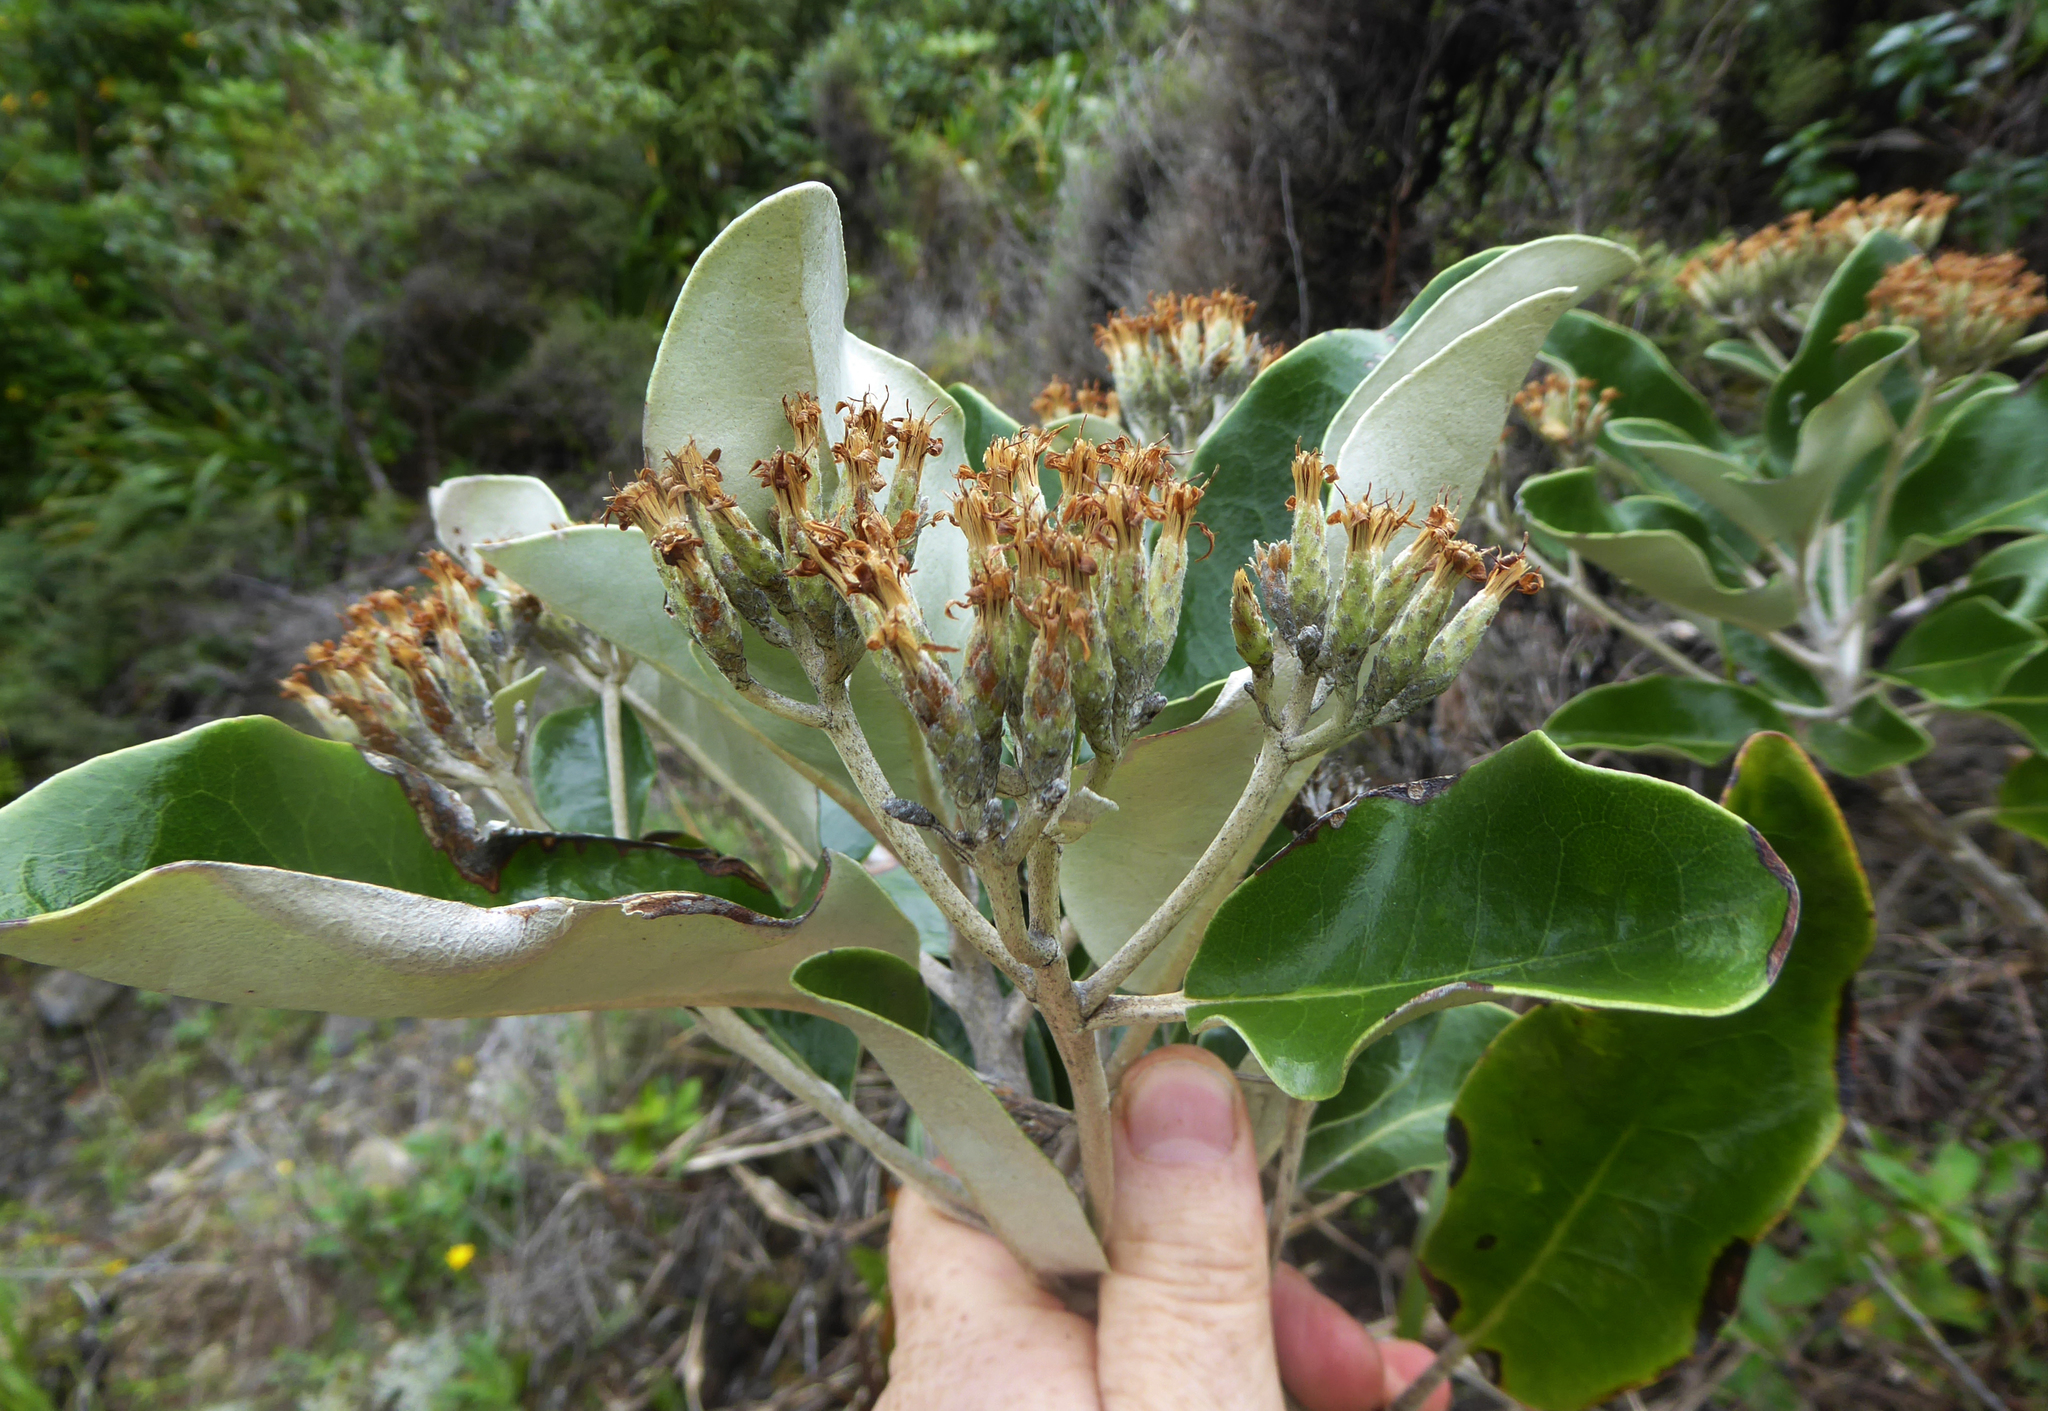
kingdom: Plantae
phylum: Tracheophyta
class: Magnoliopsida
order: Asterales
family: Asteraceae
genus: Olearia
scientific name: Olearia pachyphylla
